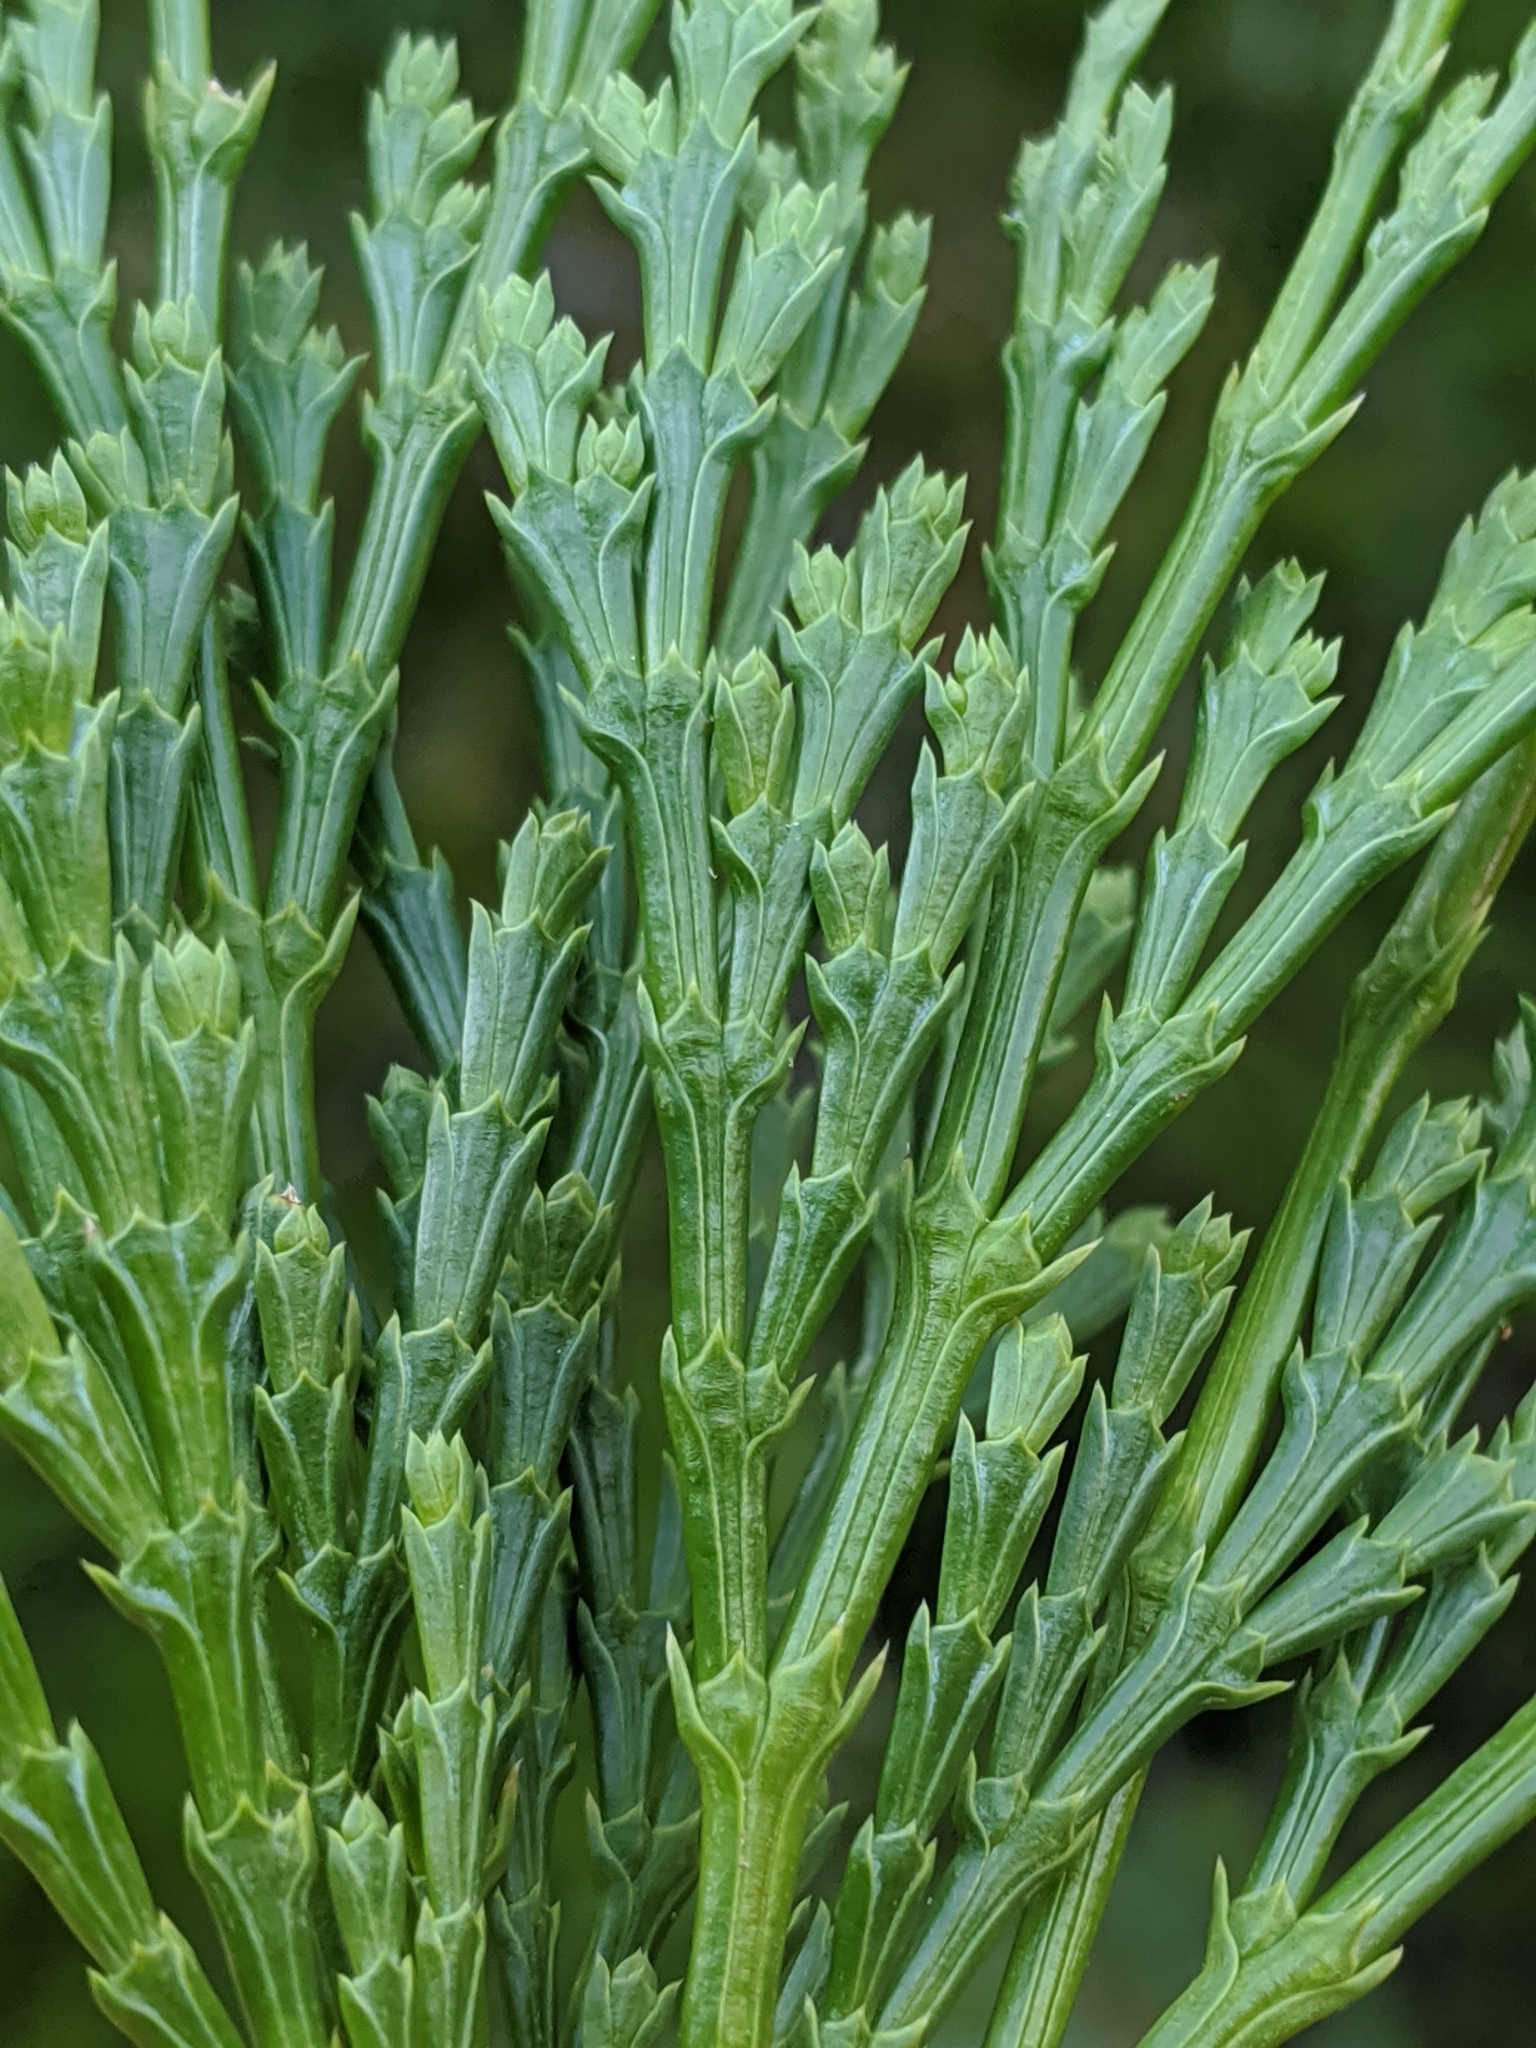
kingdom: Plantae
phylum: Tracheophyta
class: Pinopsida
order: Pinales
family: Cupressaceae
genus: Calocedrus
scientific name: Calocedrus decurrens
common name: Californian incense-cedar
